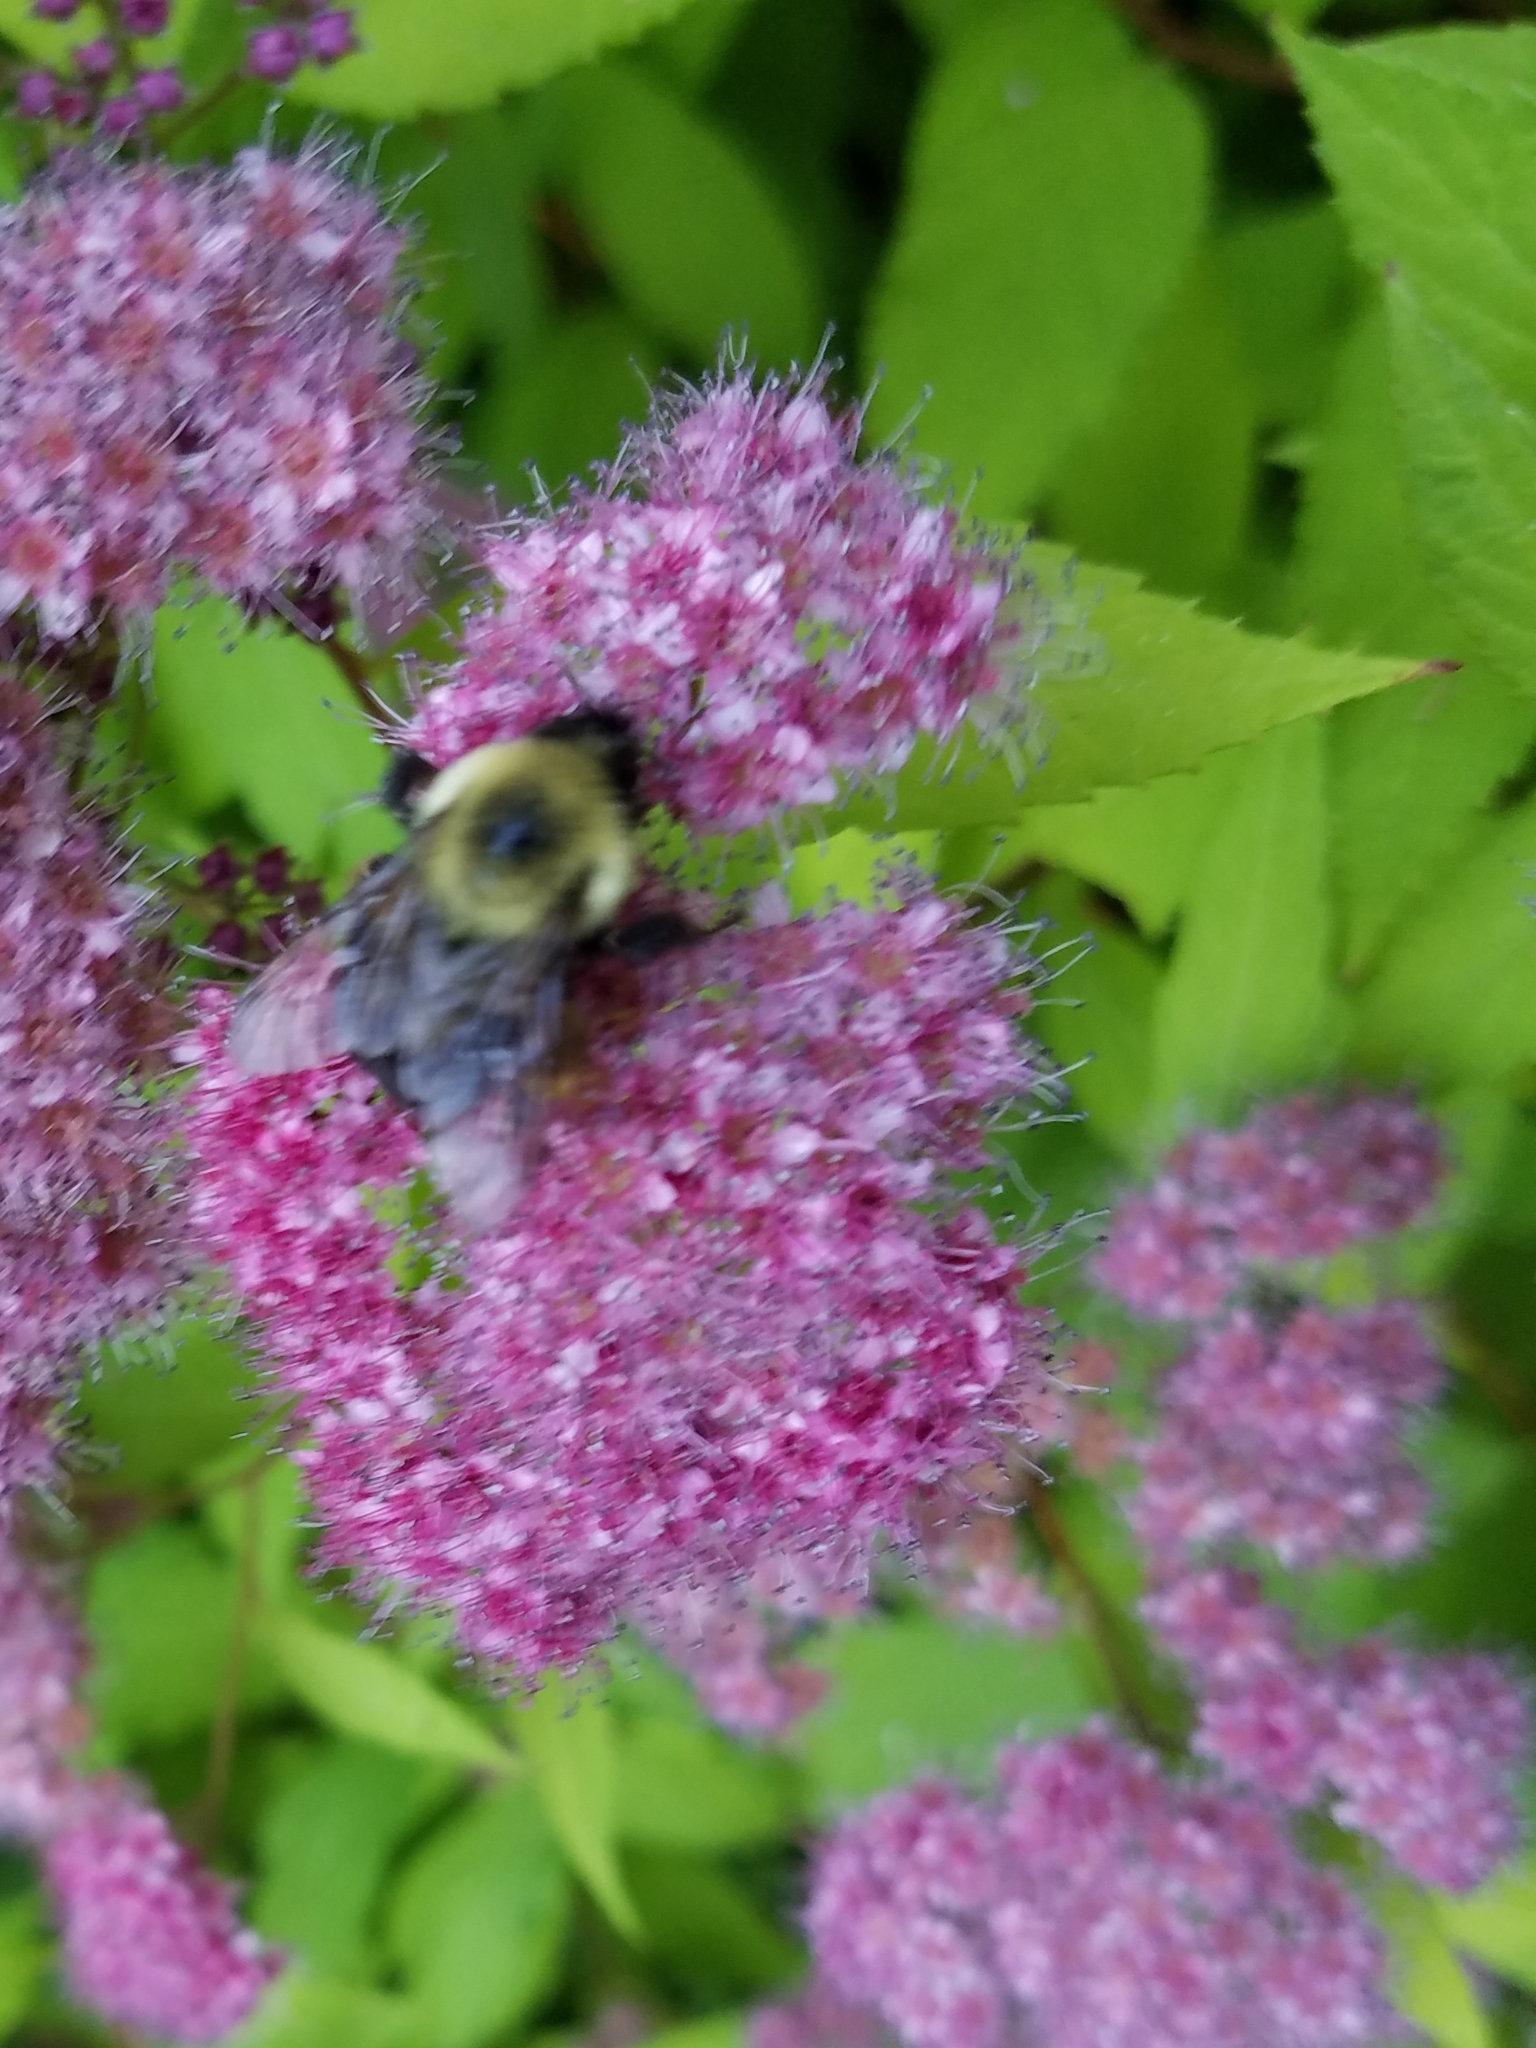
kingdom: Animalia
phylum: Arthropoda
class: Insecta
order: Hymenoptera
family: Apidae
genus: Bombus
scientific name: Bombus bimaculatus
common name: Two-spotted bumble bee
